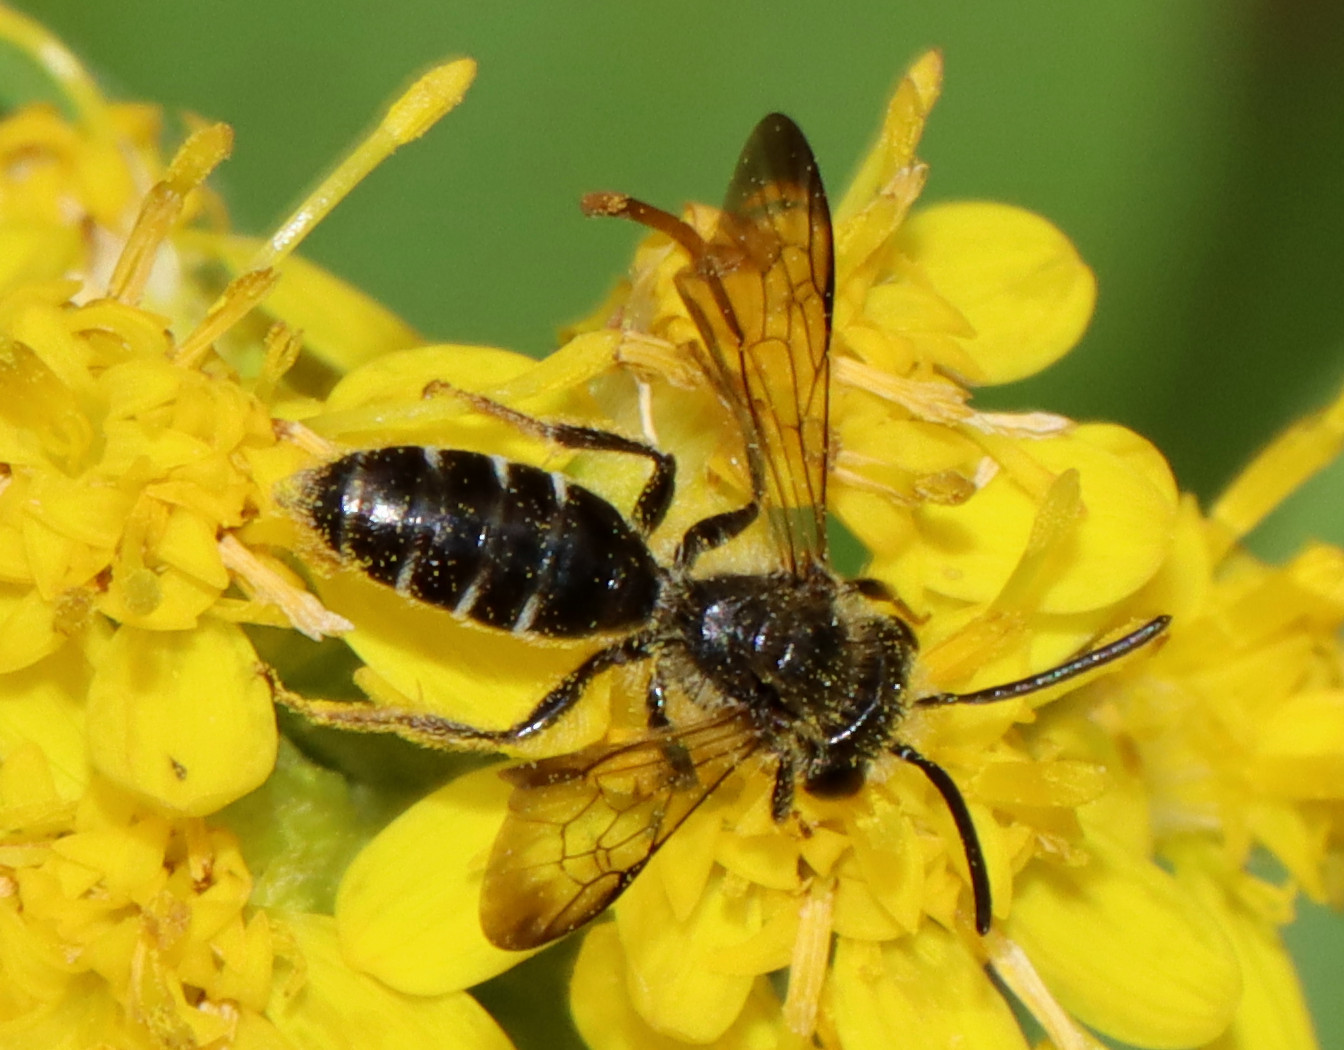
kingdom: Animalia
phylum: Arthropoda
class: Insecta
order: Hymenoptera
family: Andrenidae
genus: Andrena
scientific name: Andrena nubecula
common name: Cloudy-winged mining bee
